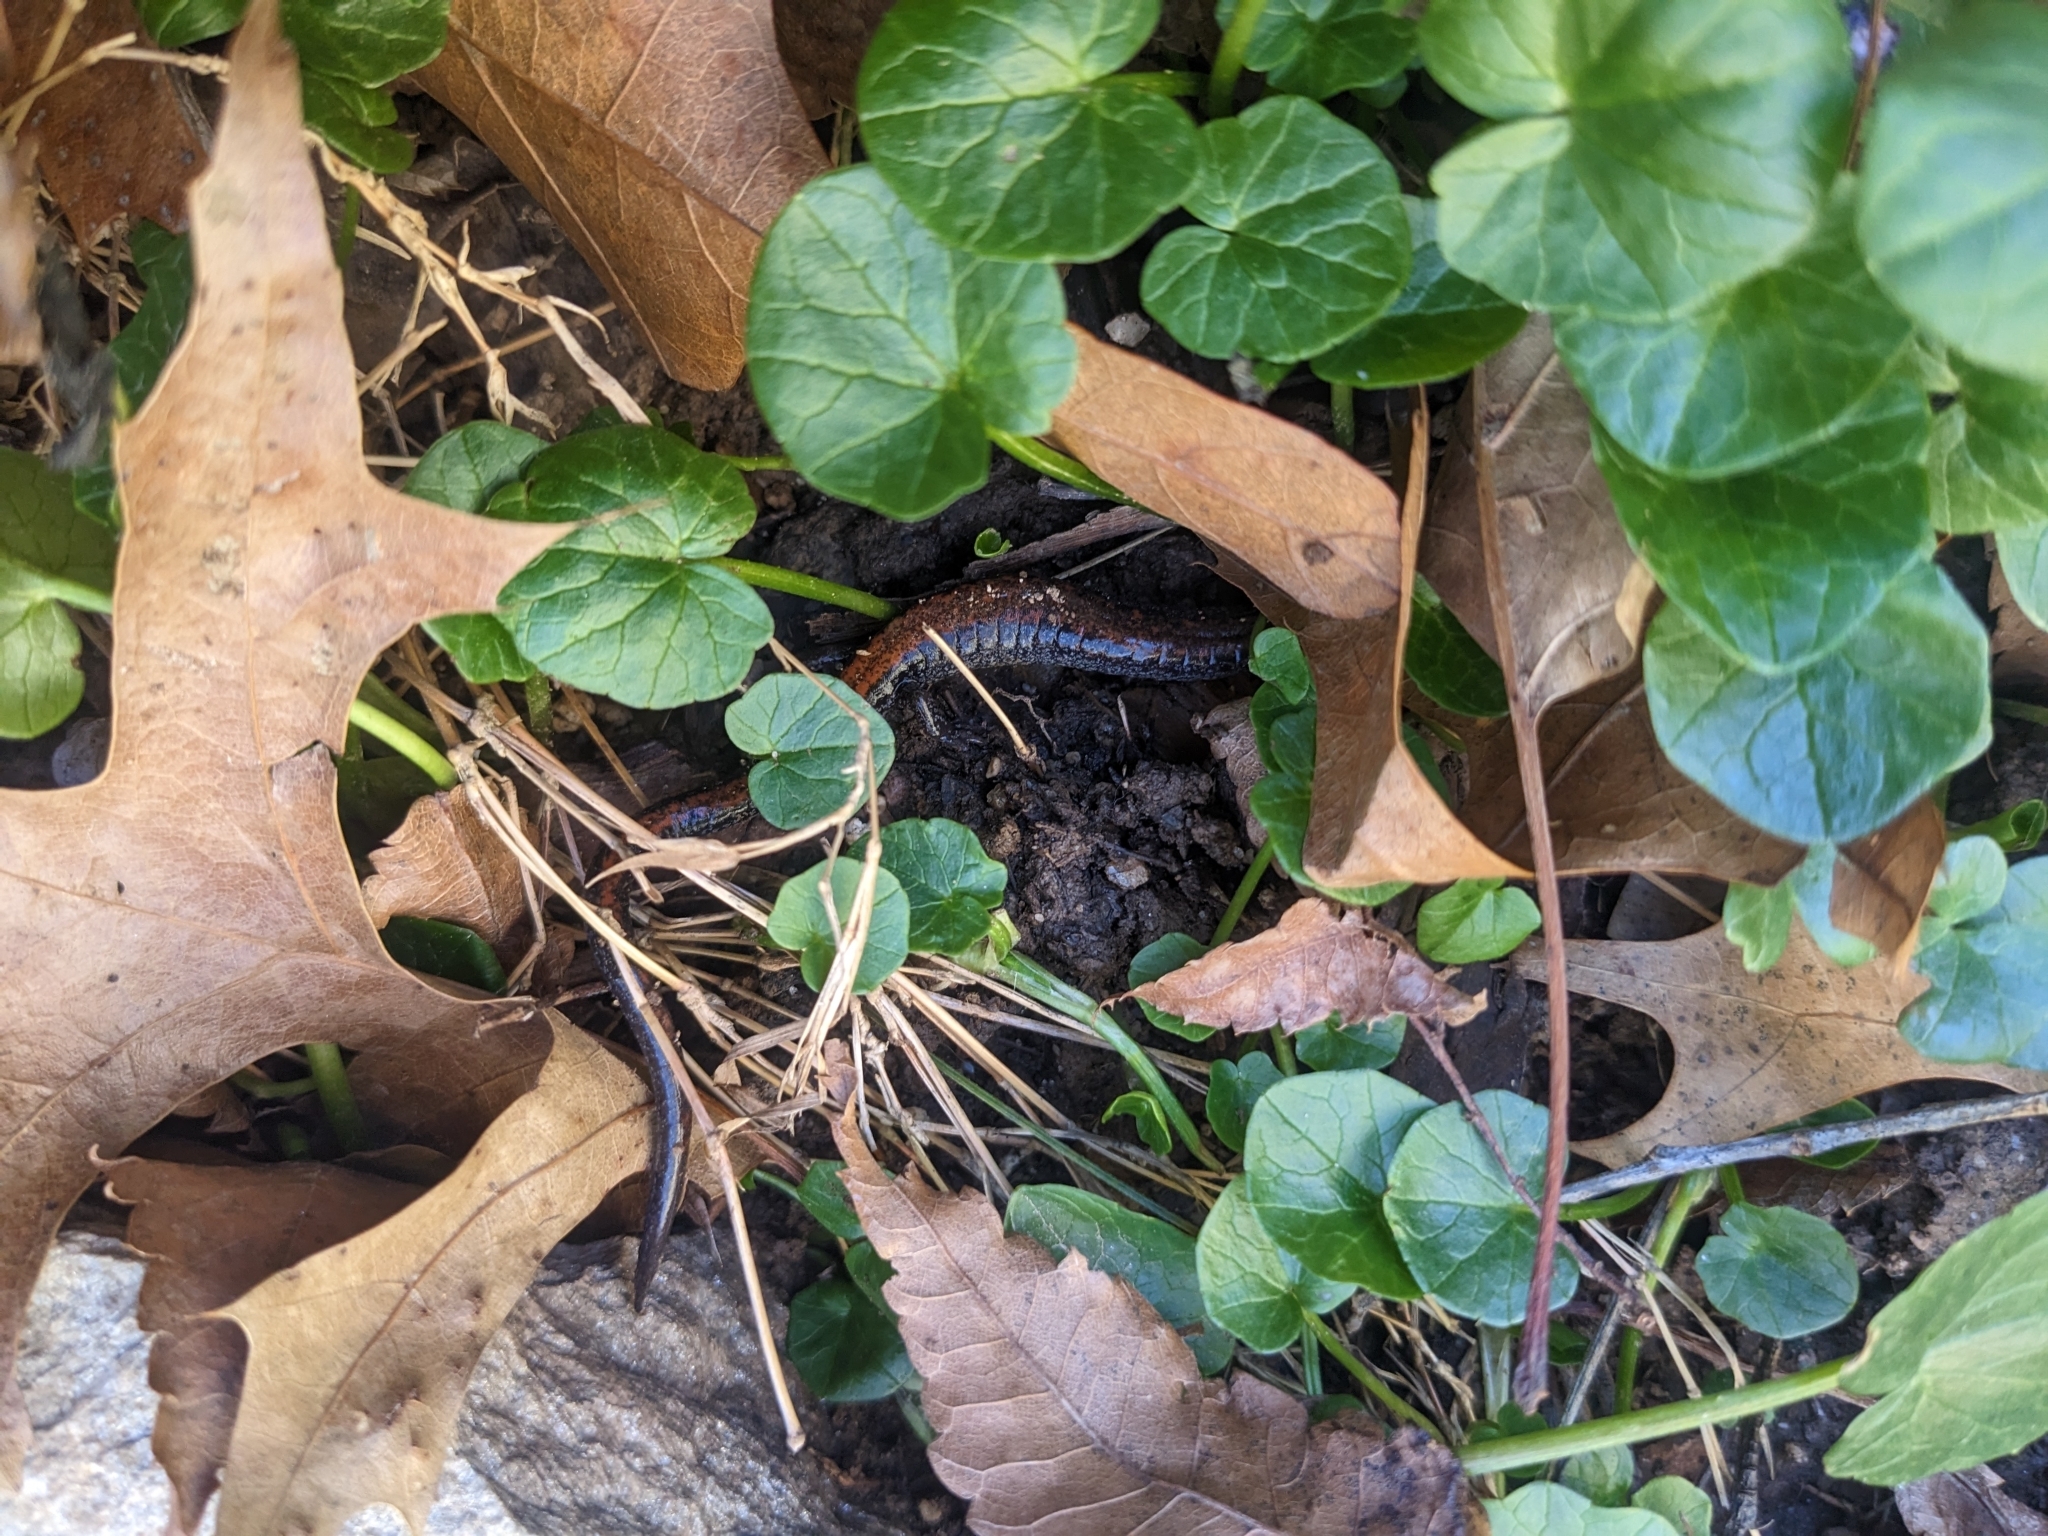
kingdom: Animalia
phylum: Chordata
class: Amphibia
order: Caudata
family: Plethodontidae
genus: Plethodon
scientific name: Plethodon cinereus
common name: Redback salamander
